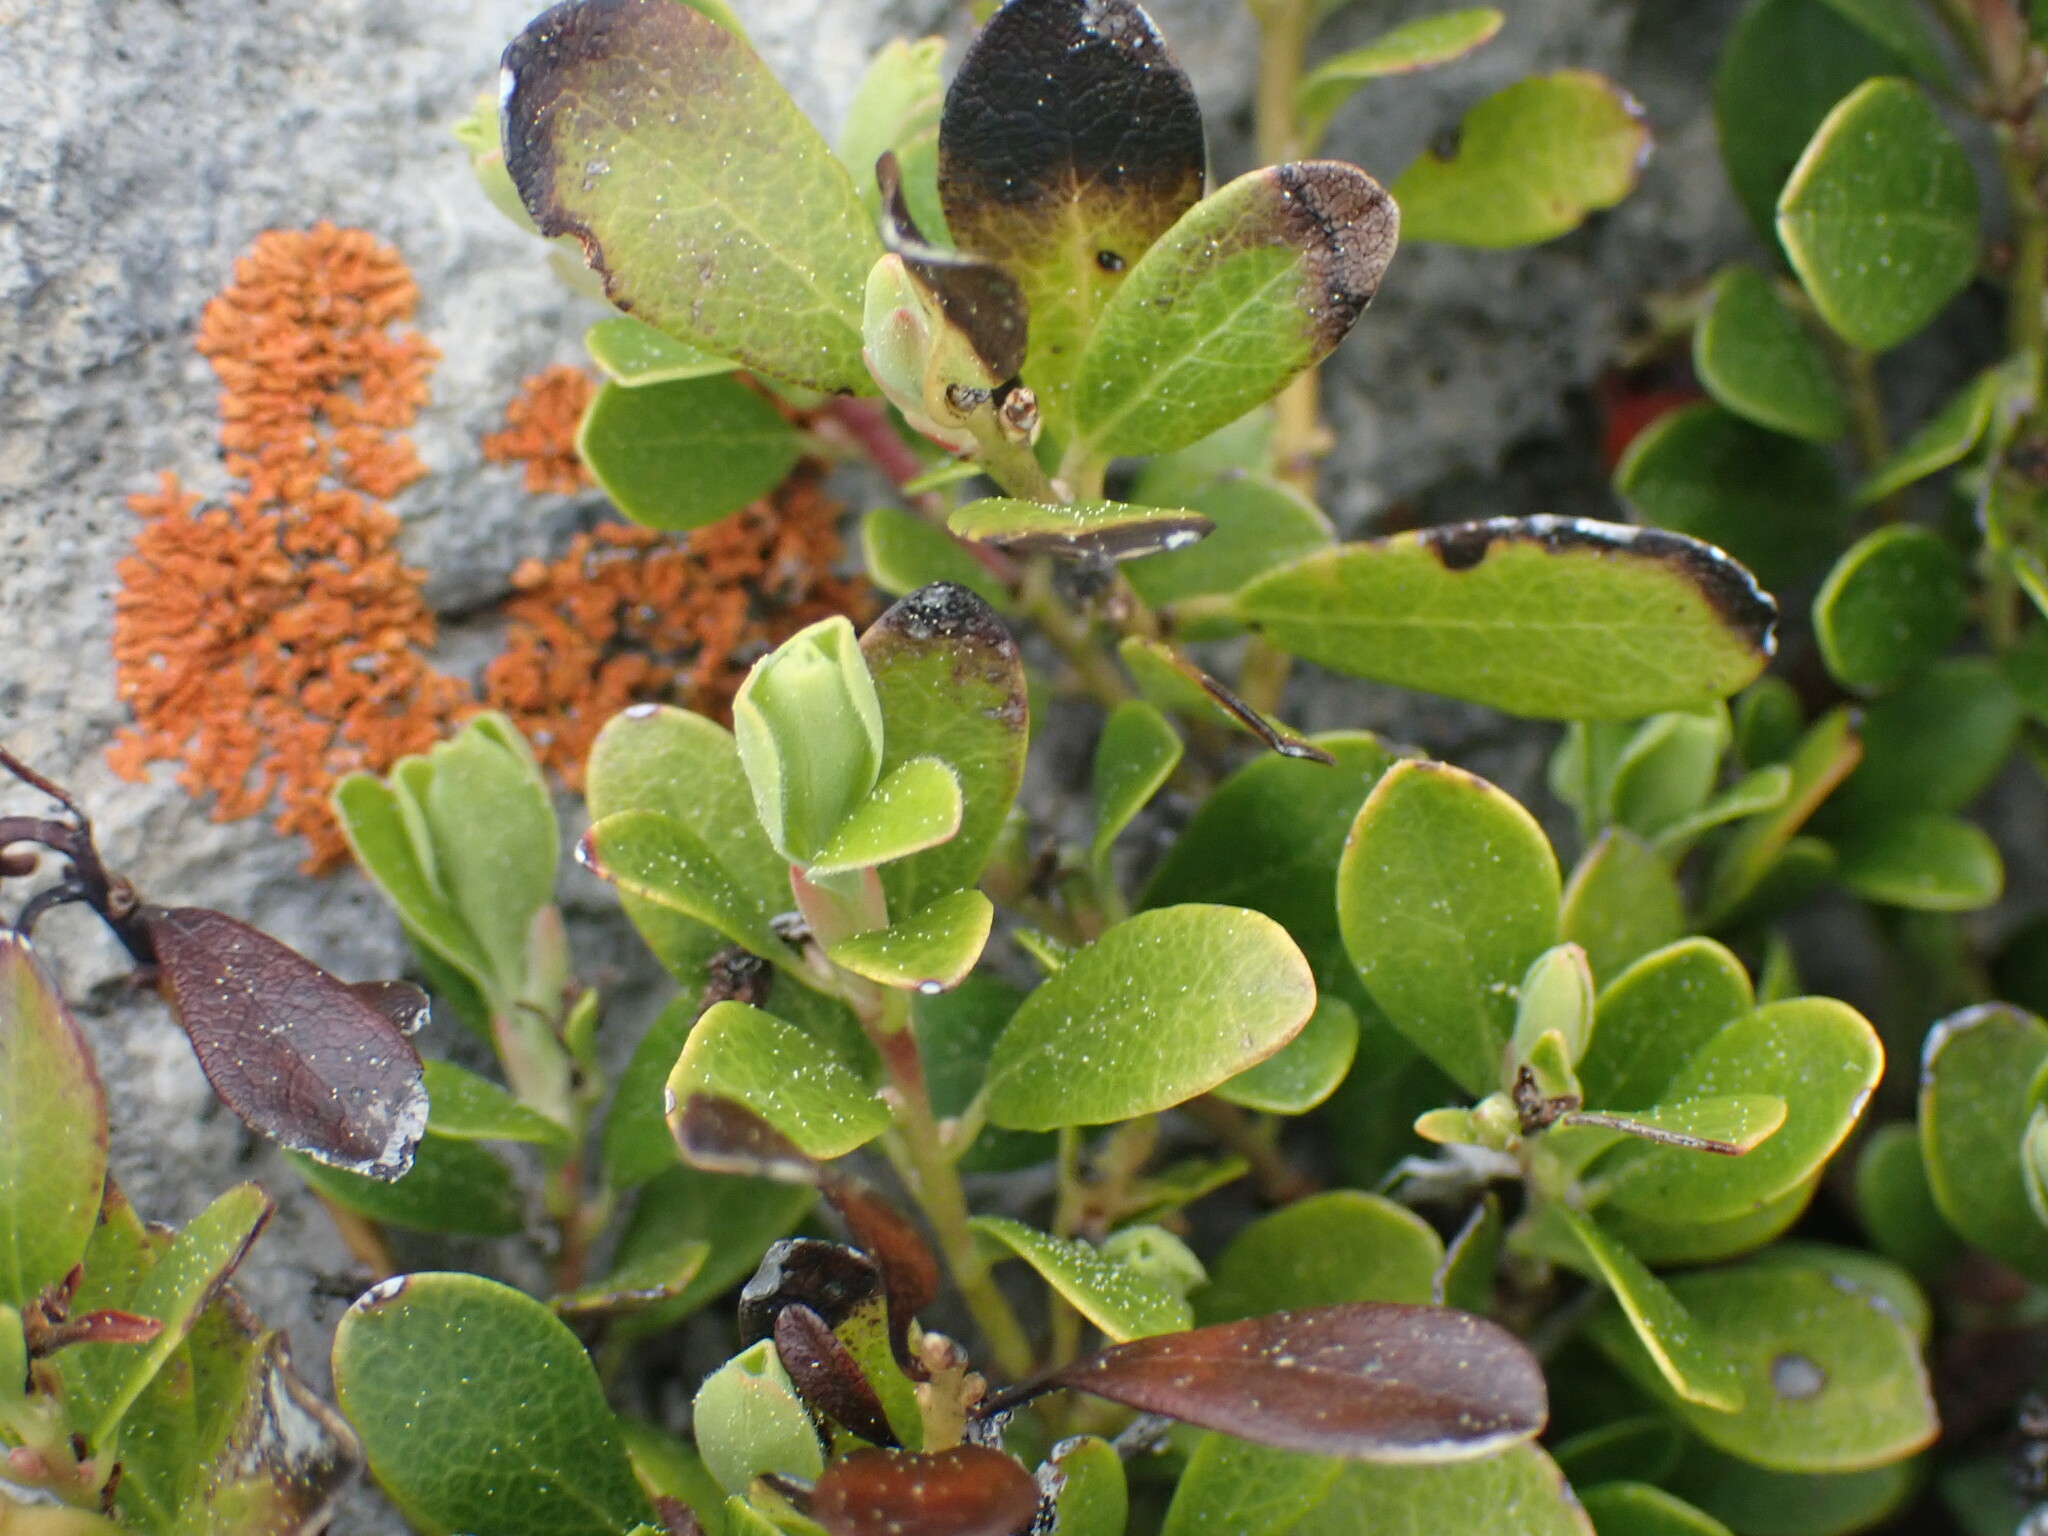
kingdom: Plantae
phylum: Tracheophyta
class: Magnoliopsida
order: Ericales
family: Ericaceae
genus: Arctostaphylos
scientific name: Arctostaphylos uva-ursi
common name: Bearberry
